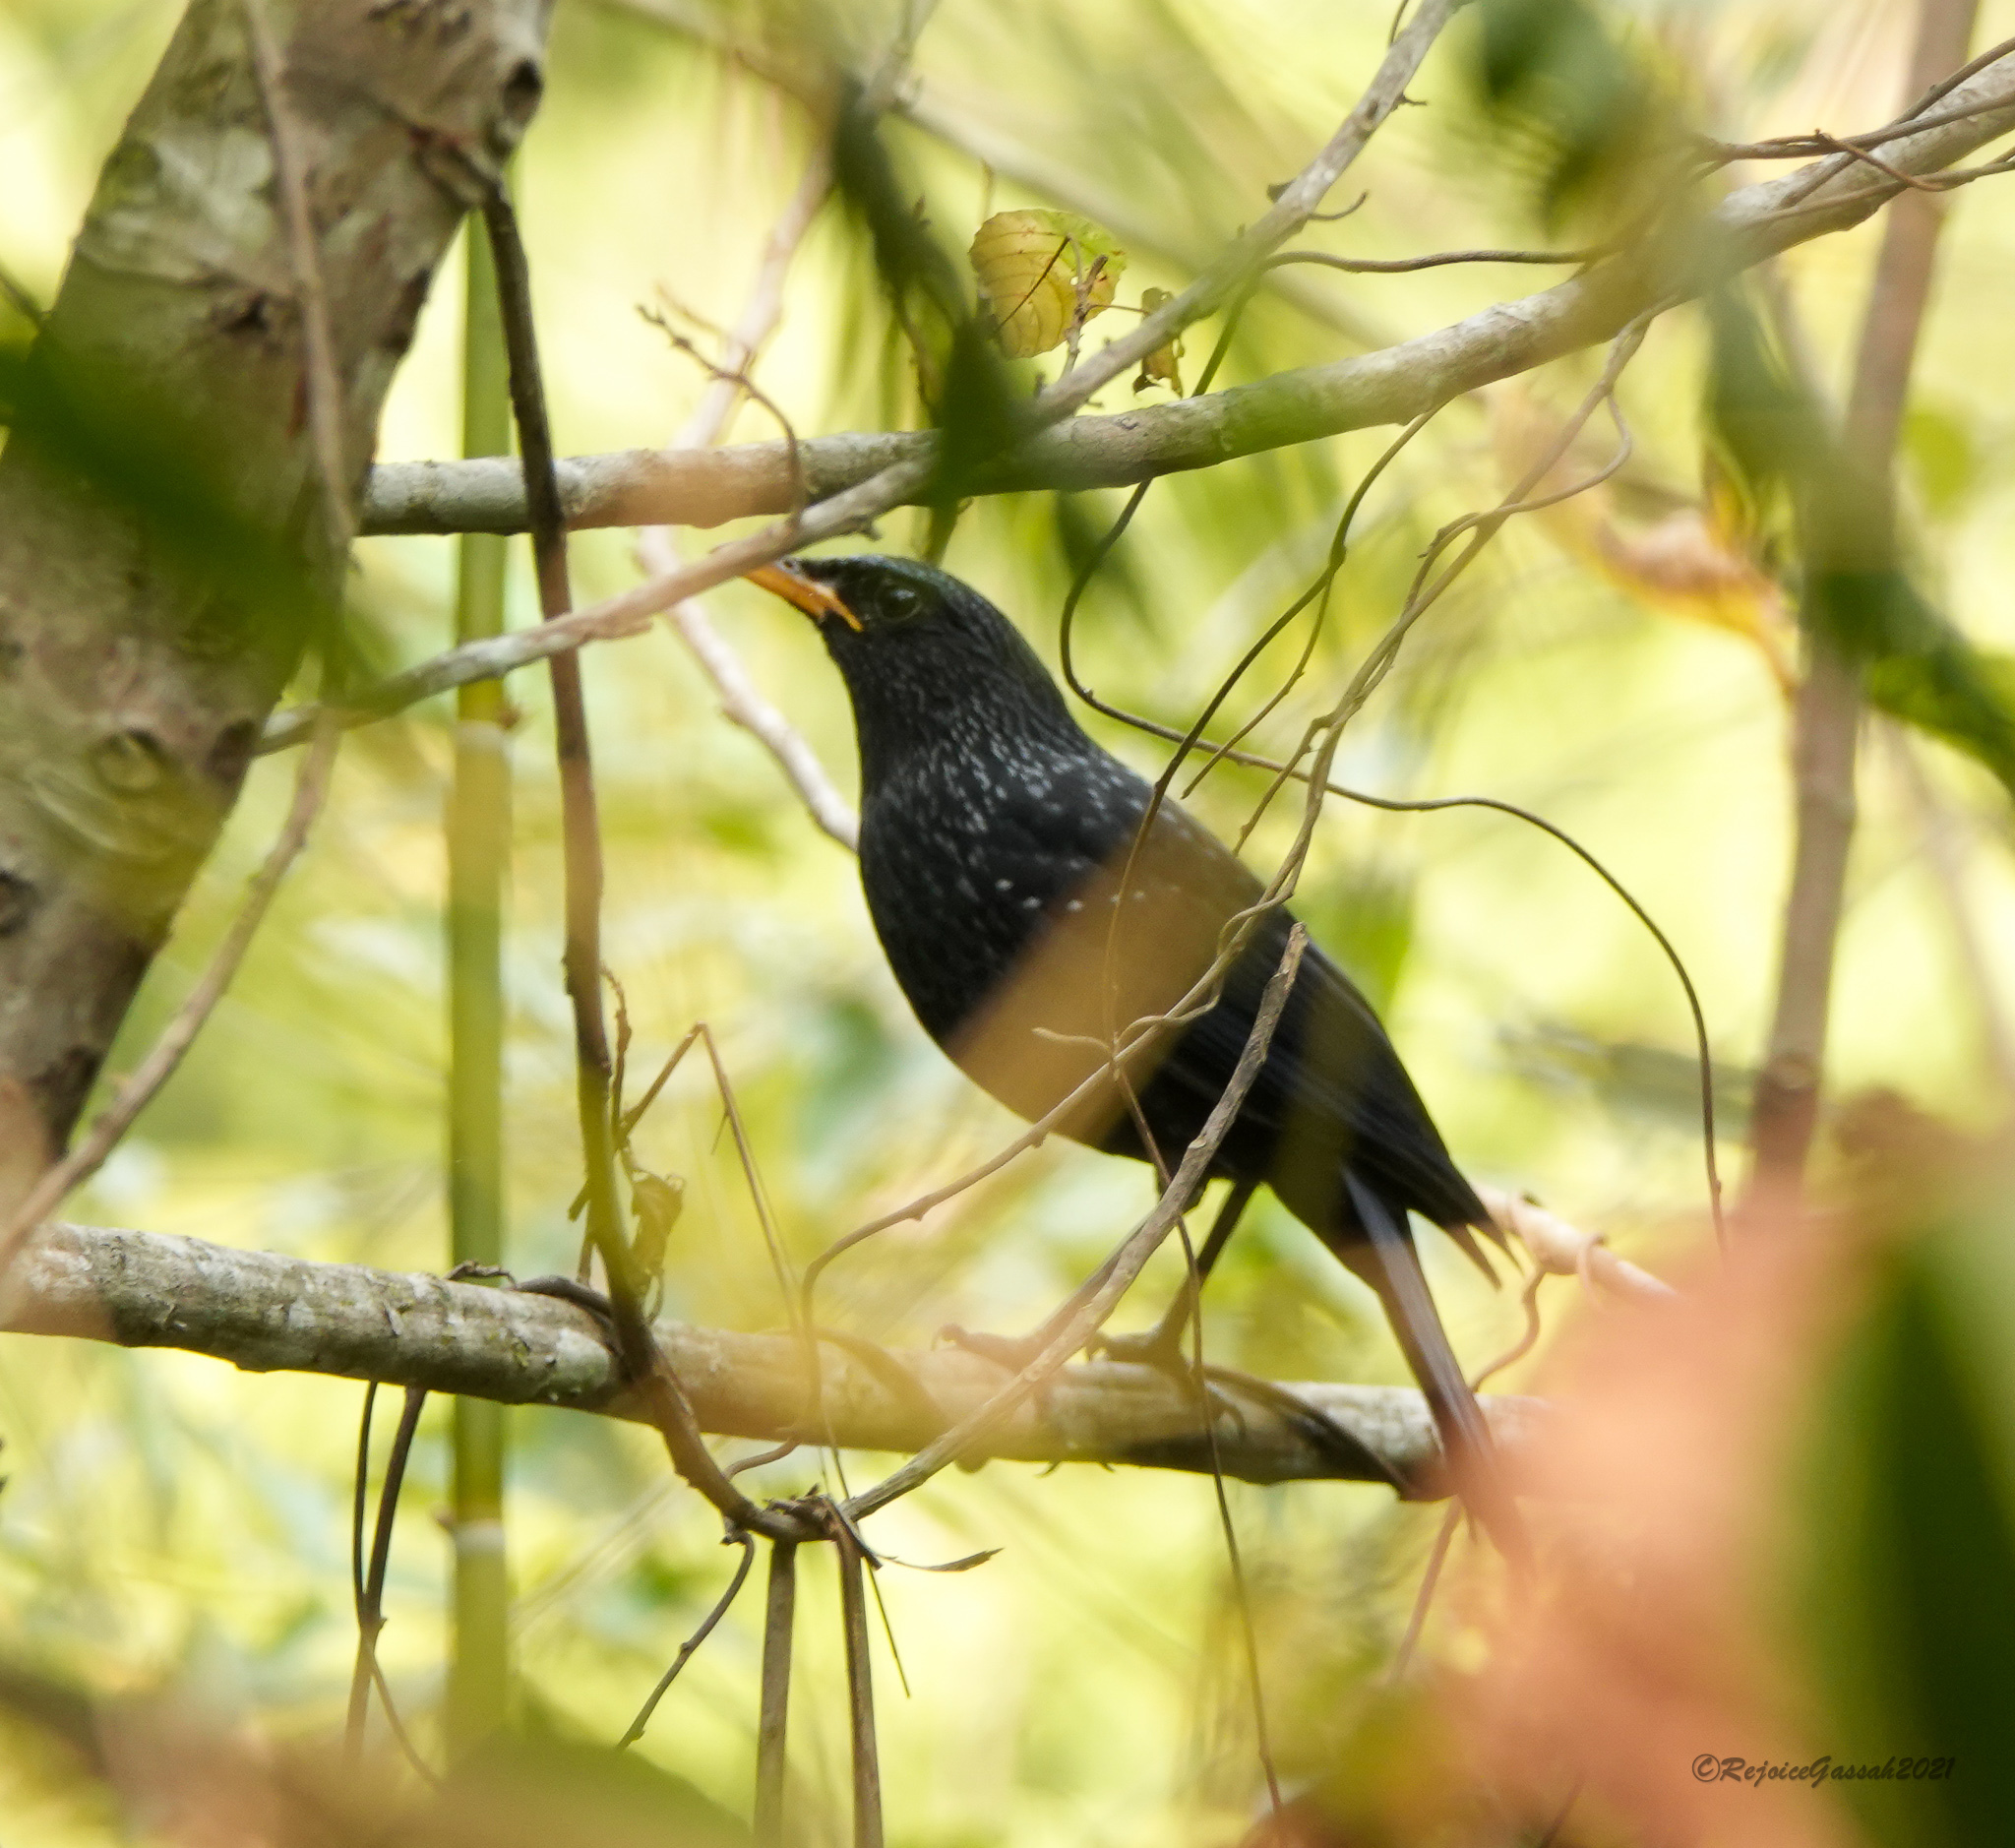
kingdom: Animalia
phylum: Chordata
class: Aves
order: Passeriformes
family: Muscicapidae
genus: Myophonus
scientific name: Myophonus caeruleus
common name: Blue whistling-thrush
